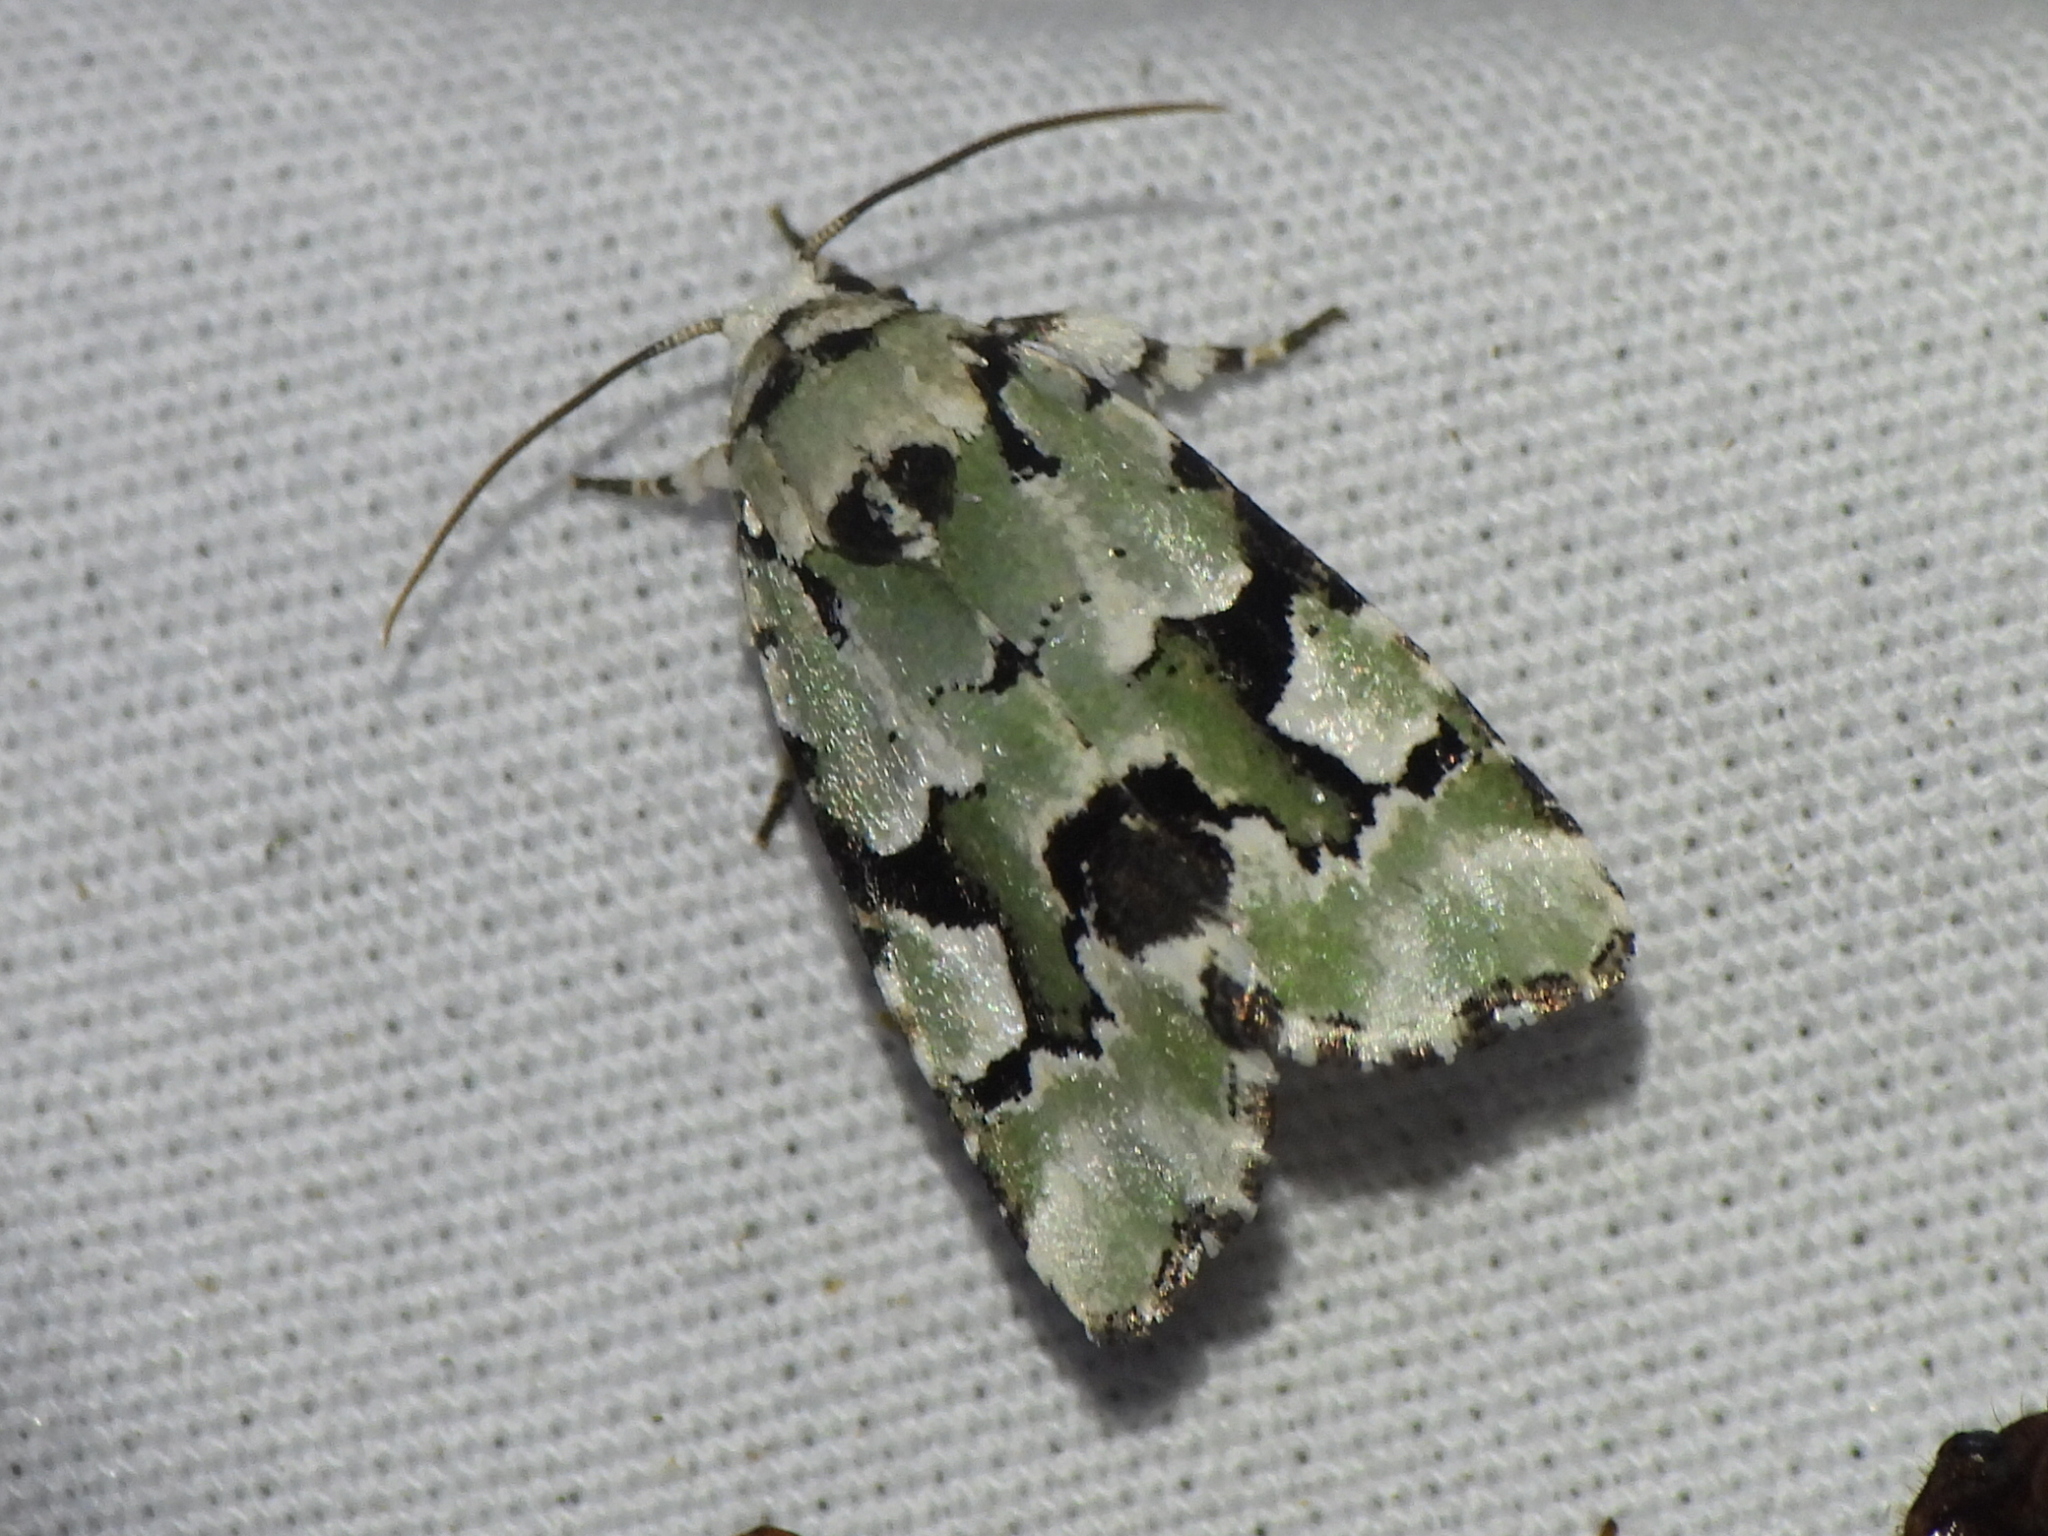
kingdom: Animalia
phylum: Arthropoda
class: Insecta
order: Lepidoptera
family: Noctuidae
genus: Emarginea
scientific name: Emarginea percara
